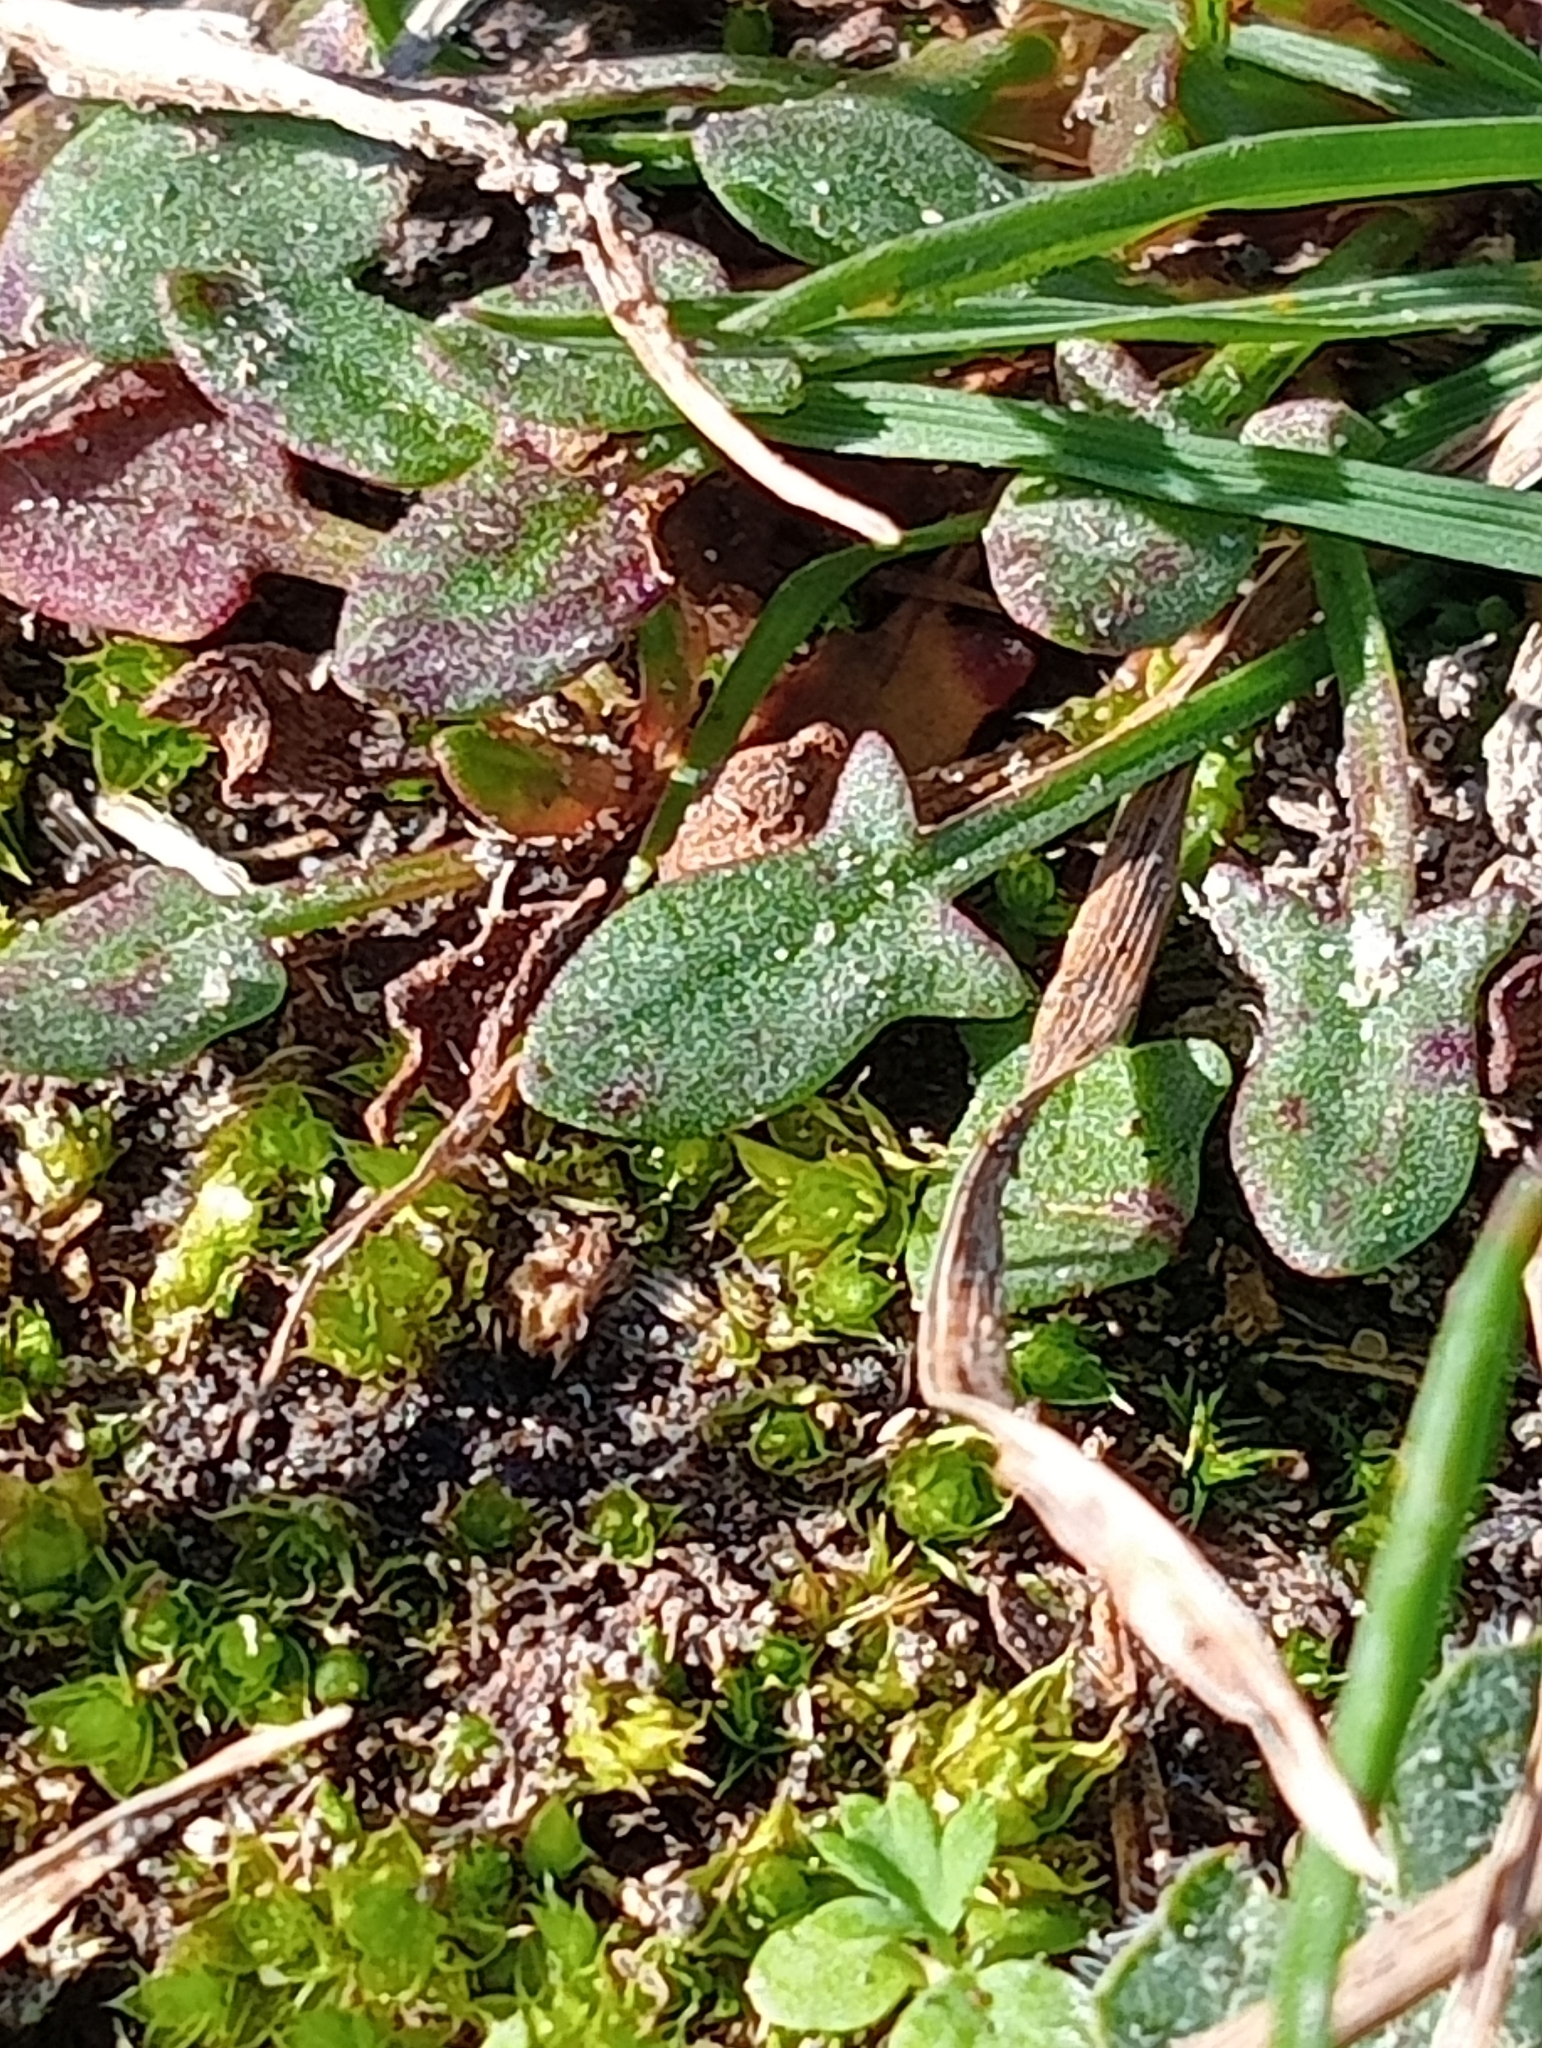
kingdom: Plantae
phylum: Tracheophyta
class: Magnoliopsida
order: Caryophyllales
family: Polygonaceae
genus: Rumex
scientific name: Rumex acetosella
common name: Common sheep sorrel
